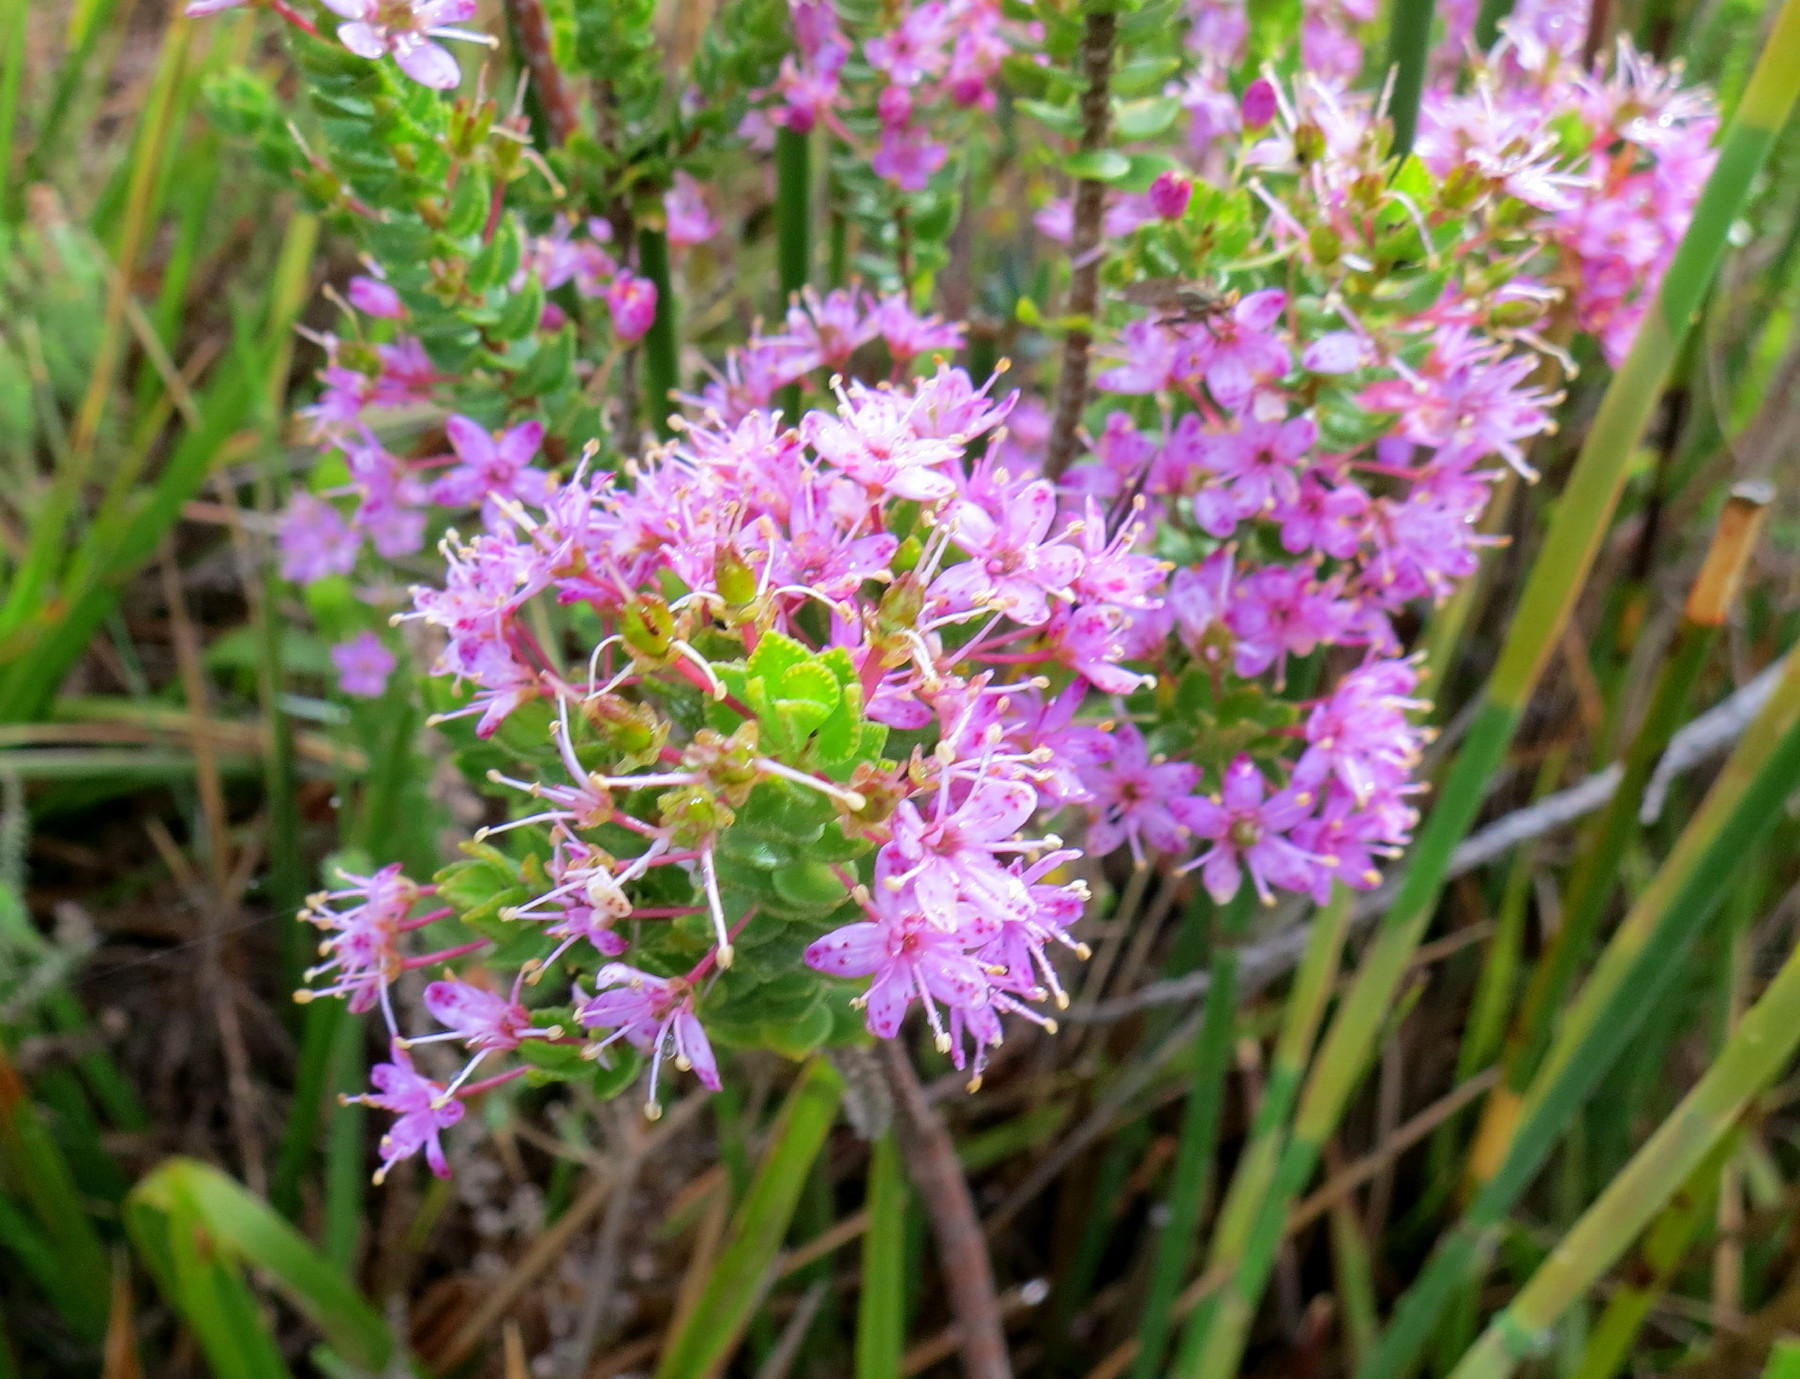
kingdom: Plantae
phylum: Tracheophyta
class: Magnoliopsida
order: Sapindales
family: Rutaceae
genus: Agathosma
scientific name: Agathosma odoratissima
